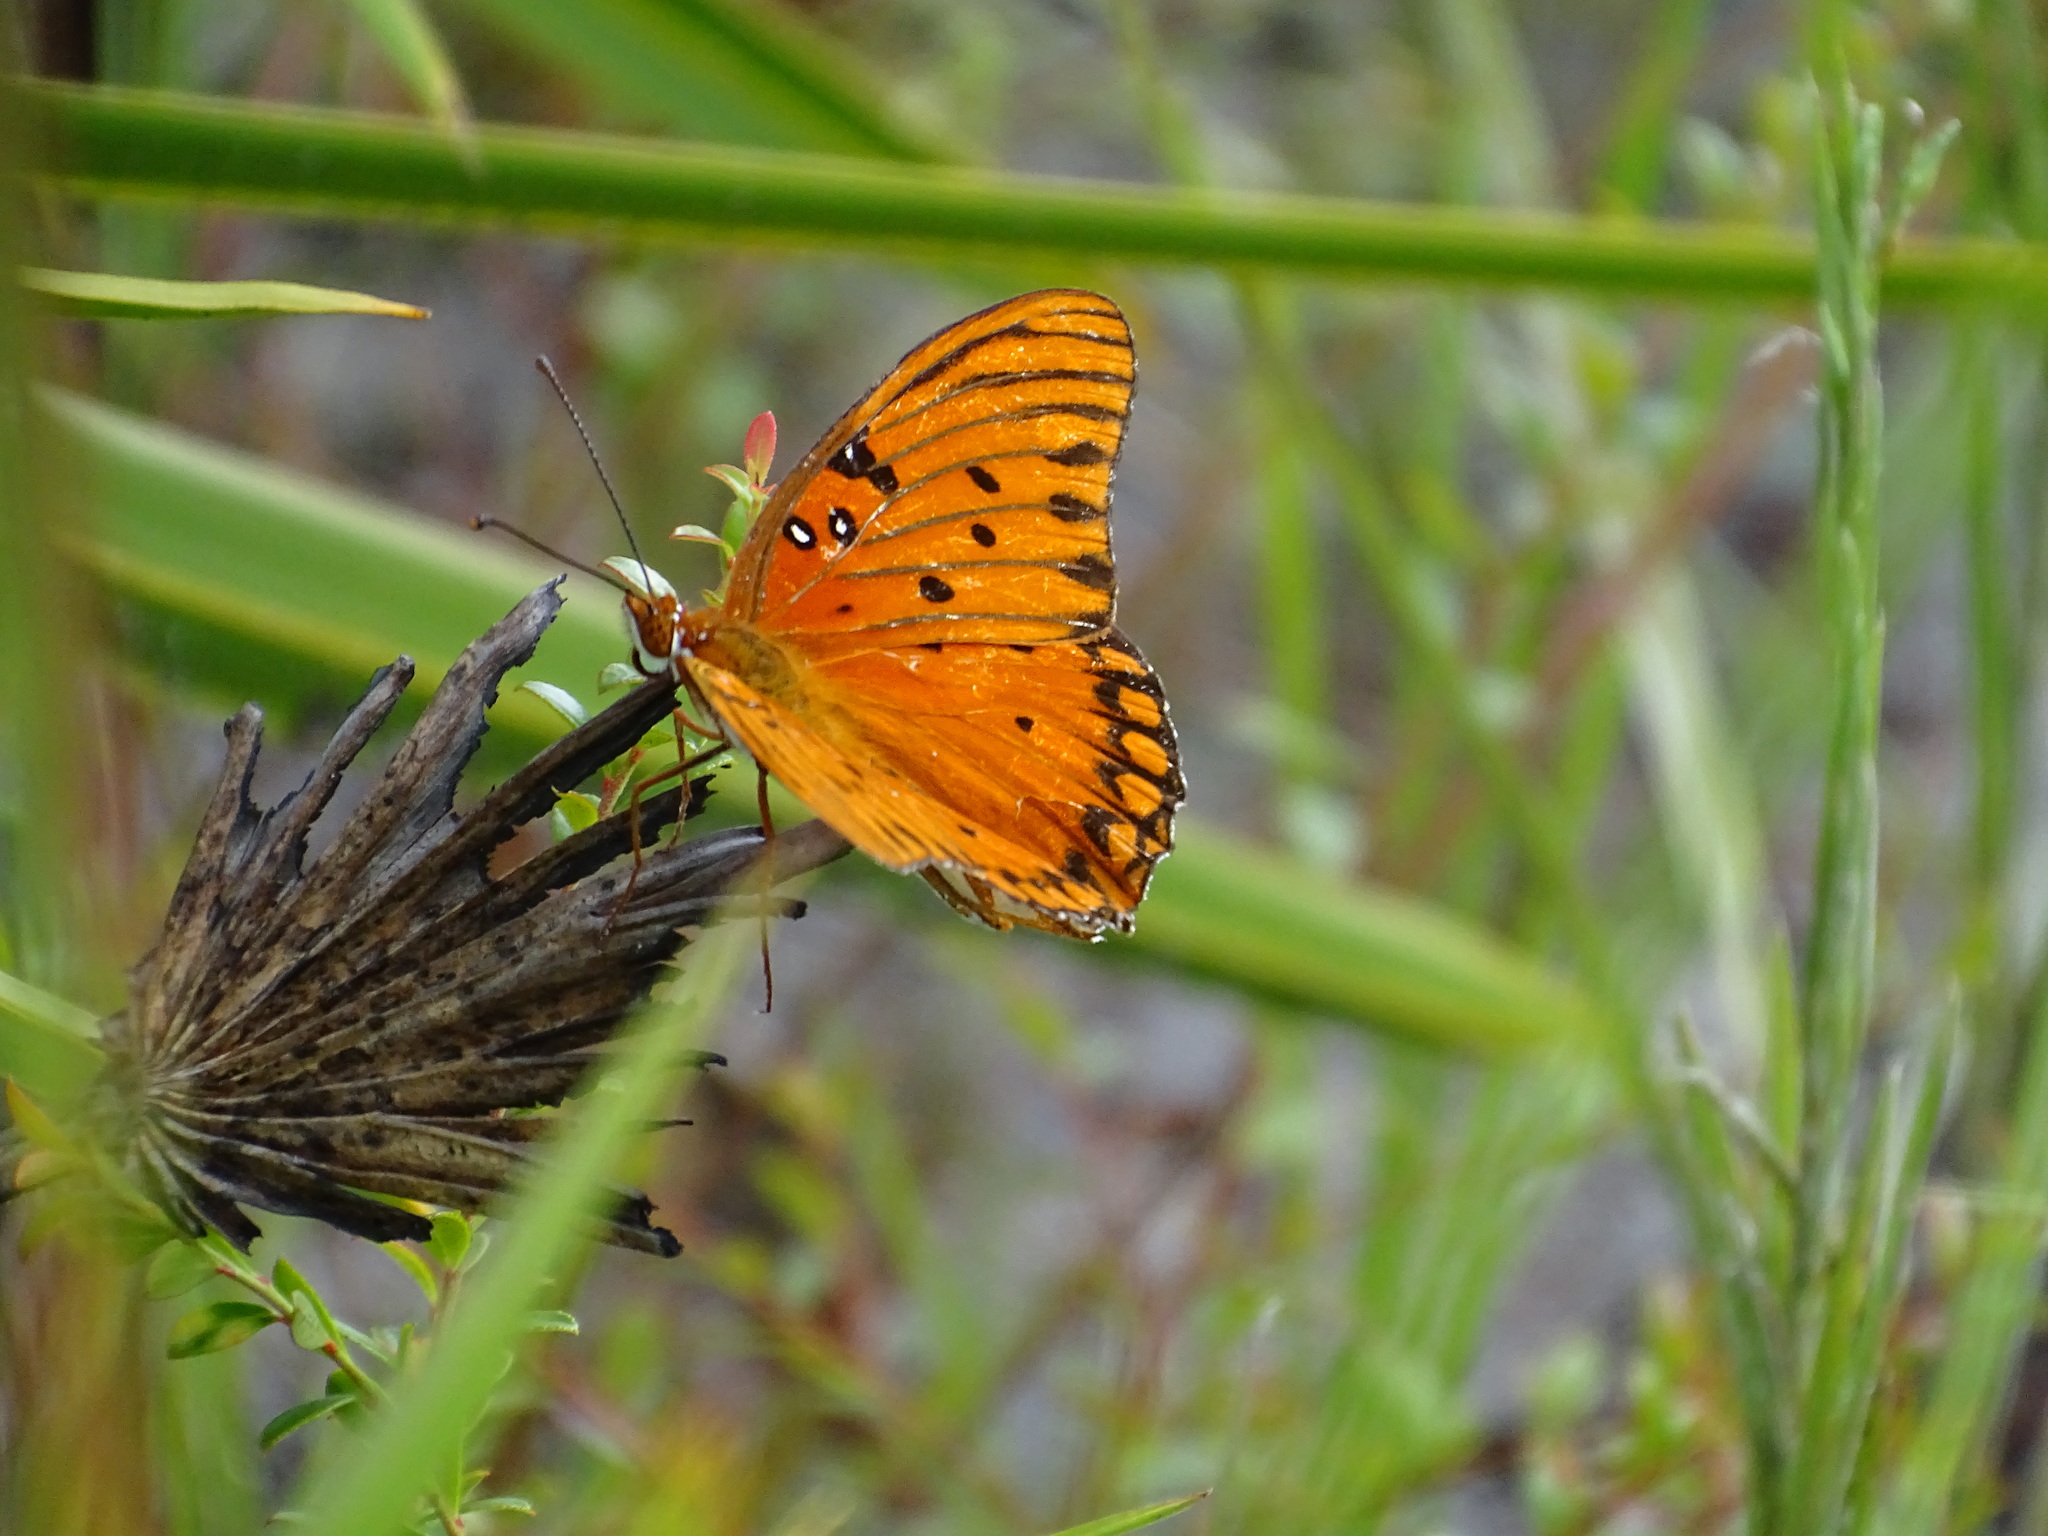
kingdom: Animalia
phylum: Arthropoda
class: Insecta
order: Lepidoptera
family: Nymphalidae
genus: Dione
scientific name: Dione vanillae
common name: Gulf fritillary
